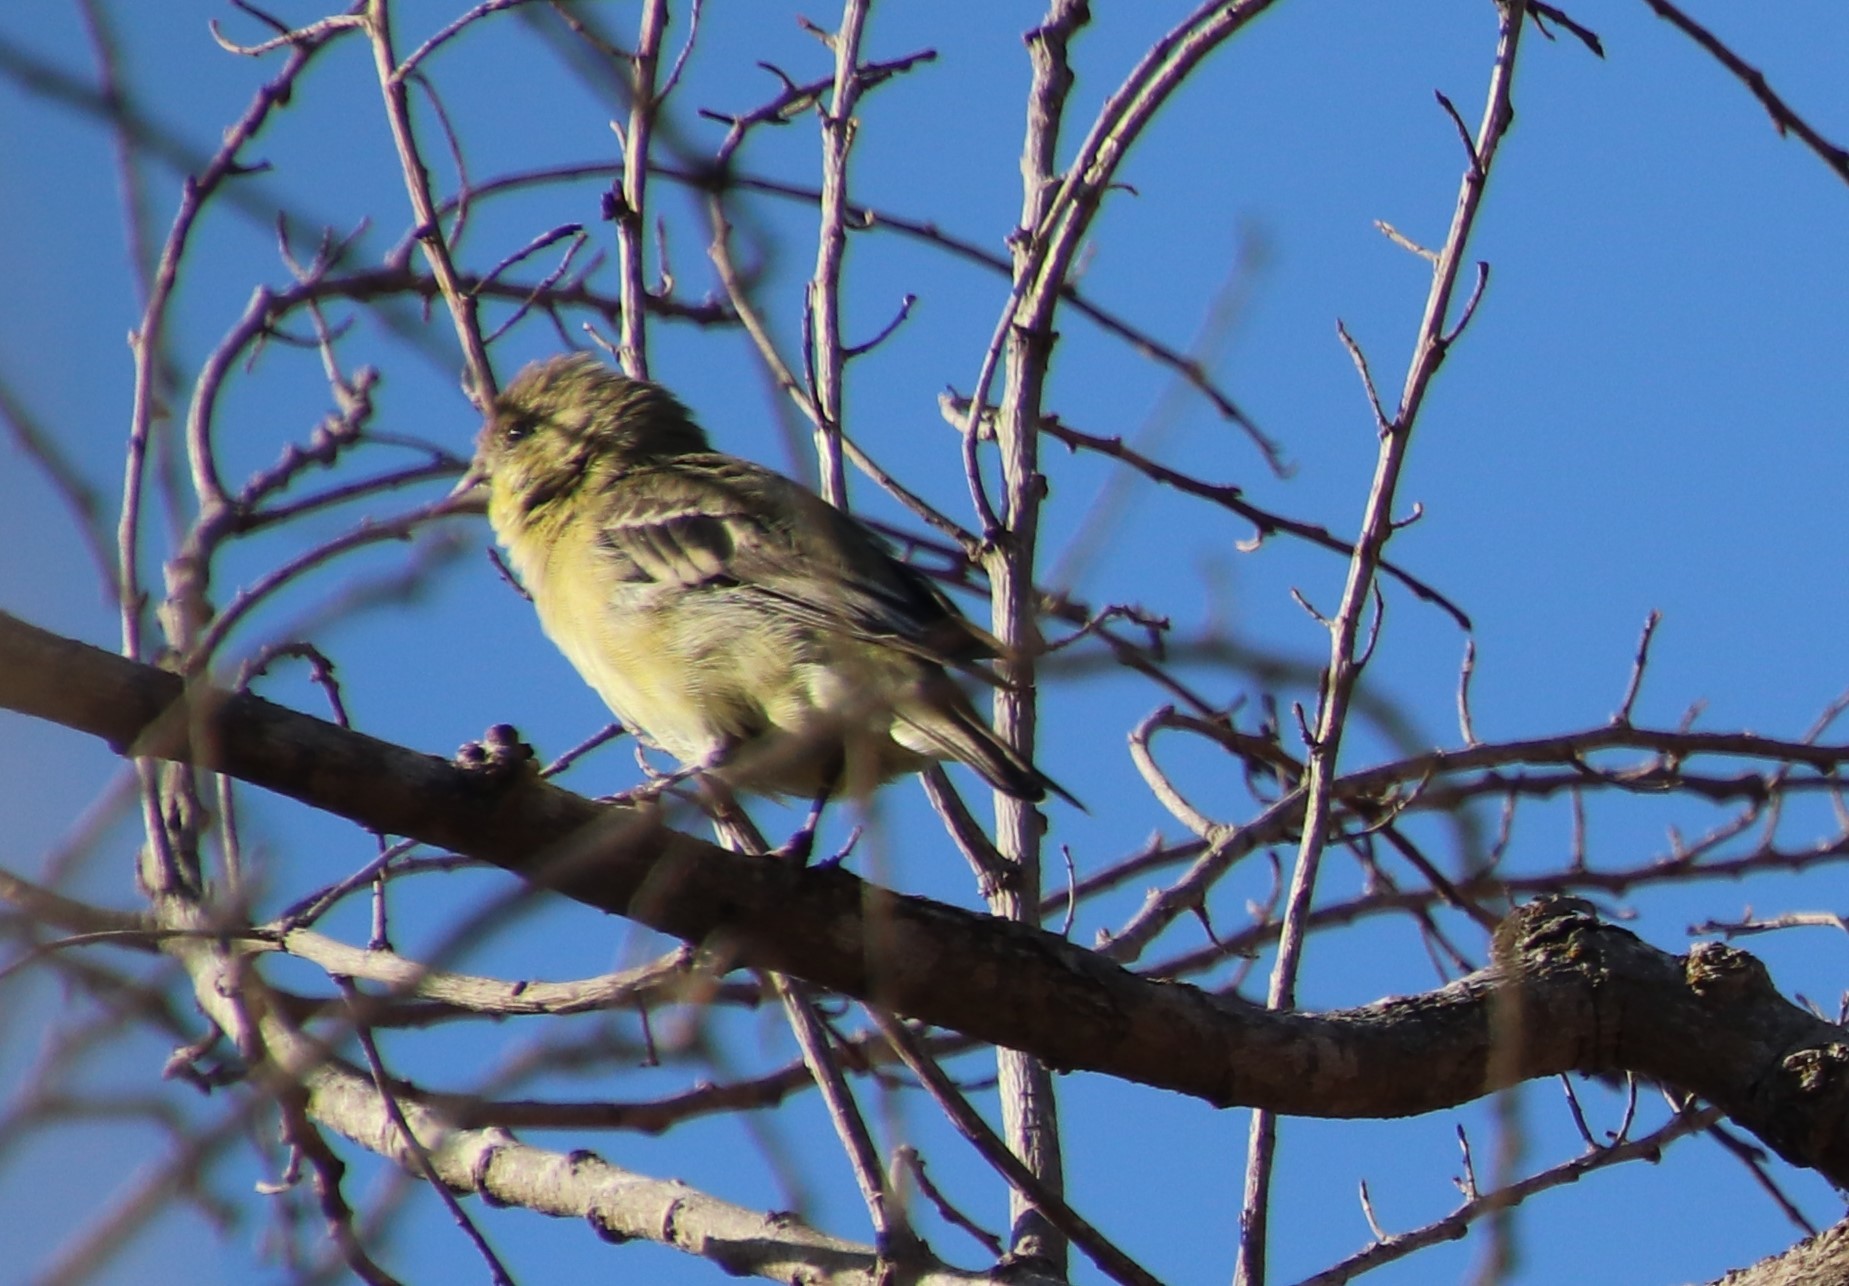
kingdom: Animalia
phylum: Chordata
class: Aves
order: Passeriformes
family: Fringillidae
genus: Spinus
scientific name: Spinus psaltria
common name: Lesser goldfinch
